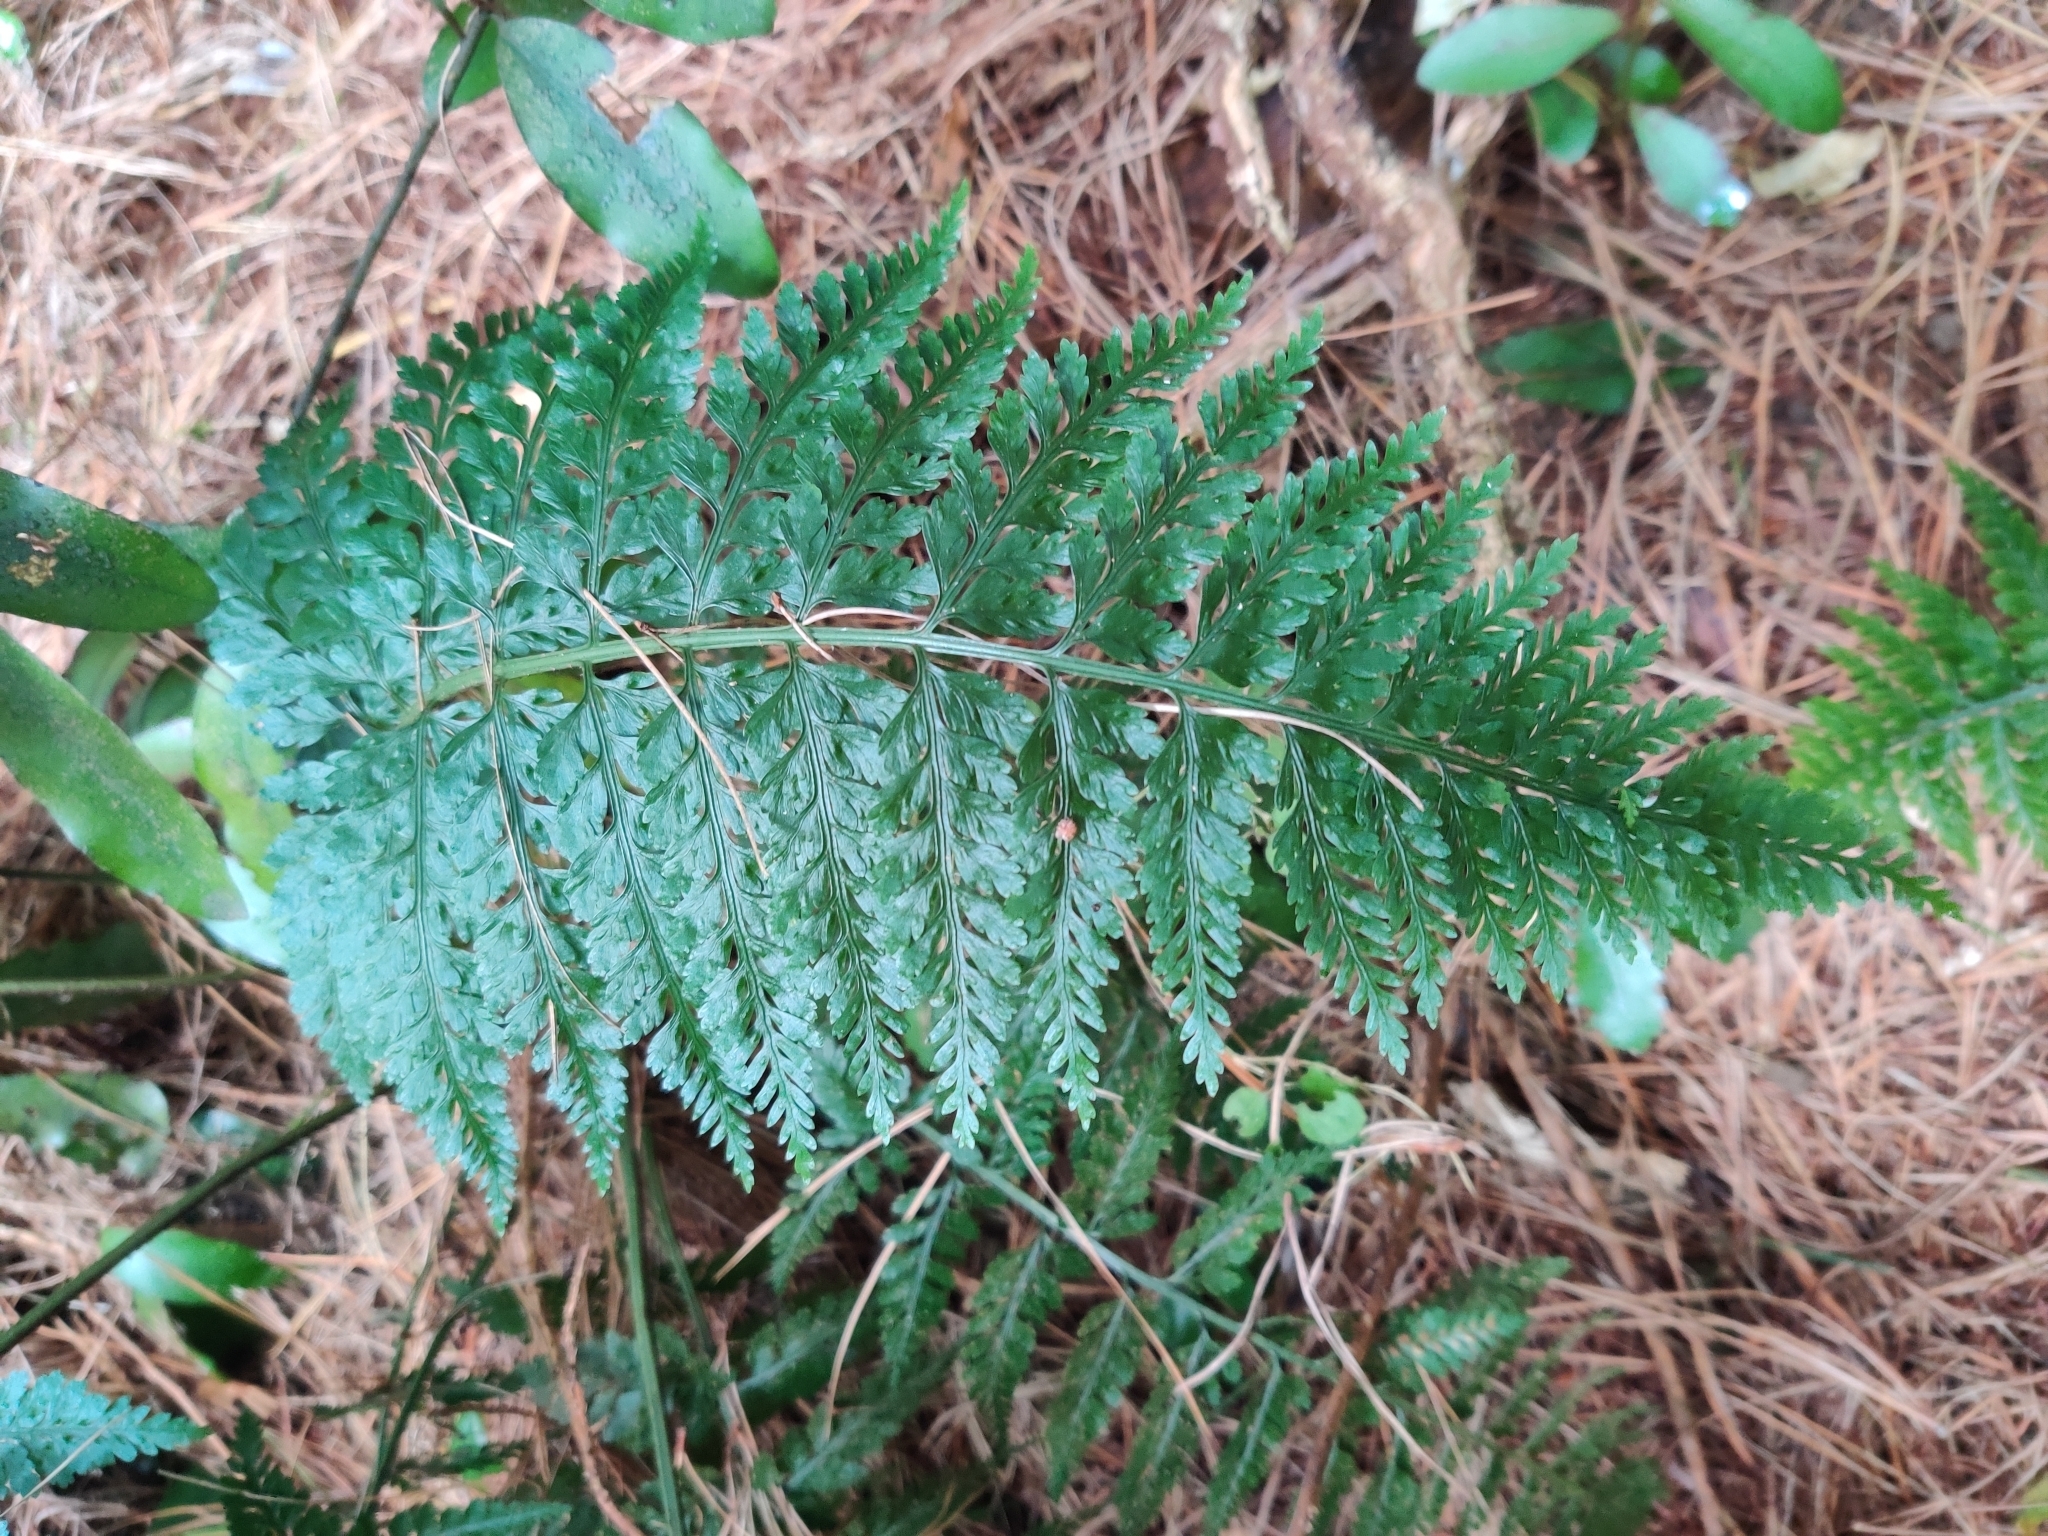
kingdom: Plantae
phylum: Tracheophyta
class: Polypodiopsida
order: Polypodiales
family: Aspleniaceae
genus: Asplenium
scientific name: Asplenium
